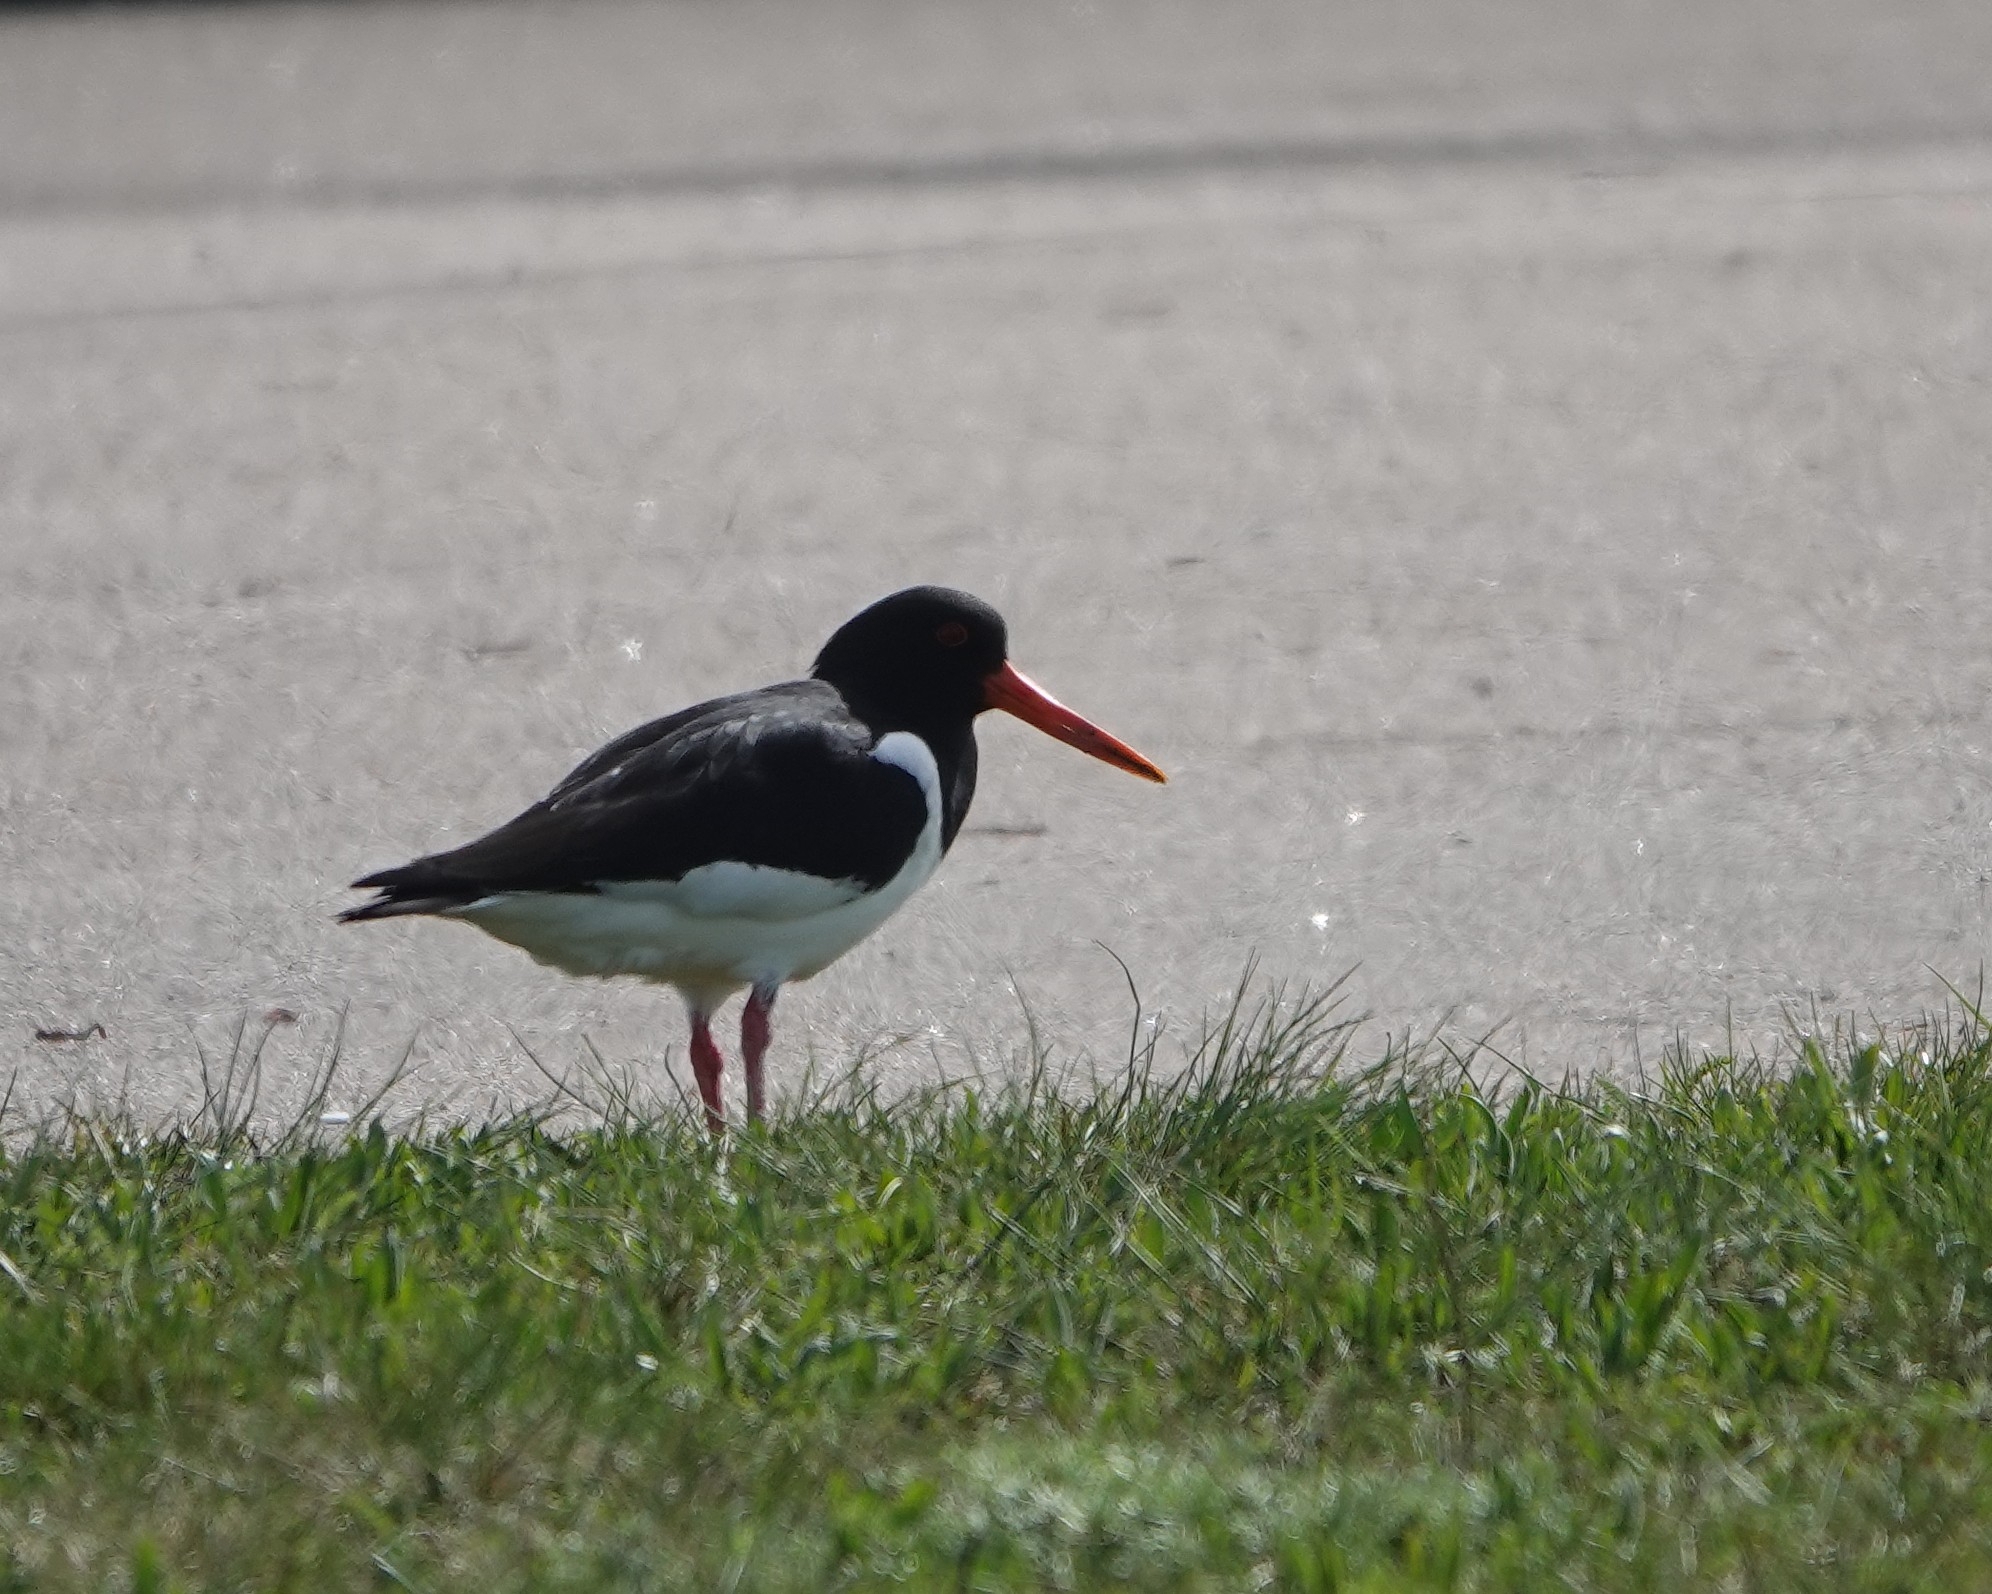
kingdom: Animalia
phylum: Chordata
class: Aves
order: Charadriiformes
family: Haematopodidae
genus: Haematopus
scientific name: Haematopus ostralegus
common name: Eurasian oystercatcher
